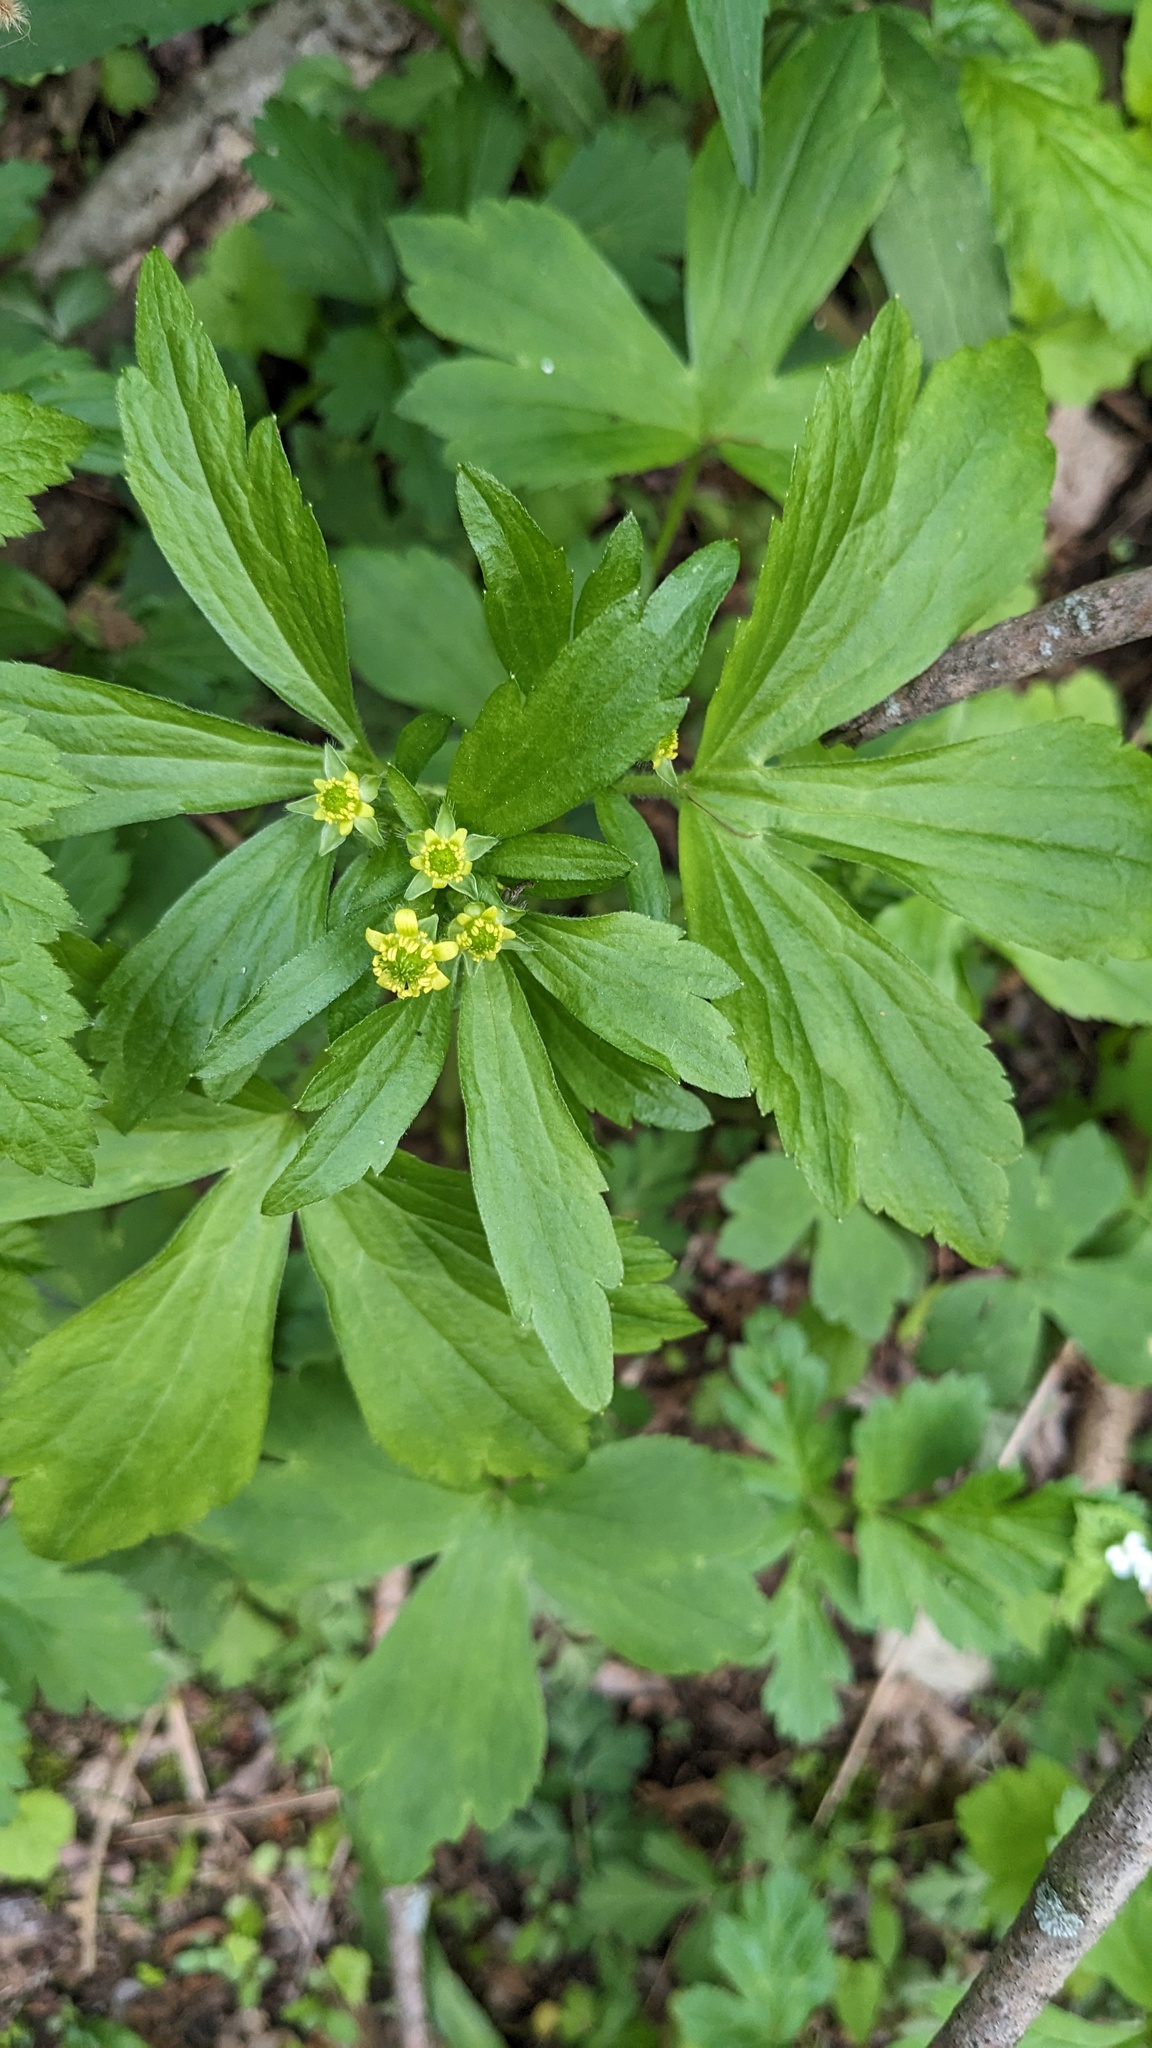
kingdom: Plantae
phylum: Tracheophyta
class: Magnoliopsida
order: Ranunculales
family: Ranunculaceae
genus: Ranunculus
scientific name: Ranunculus recurvatus
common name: Blisterwort
